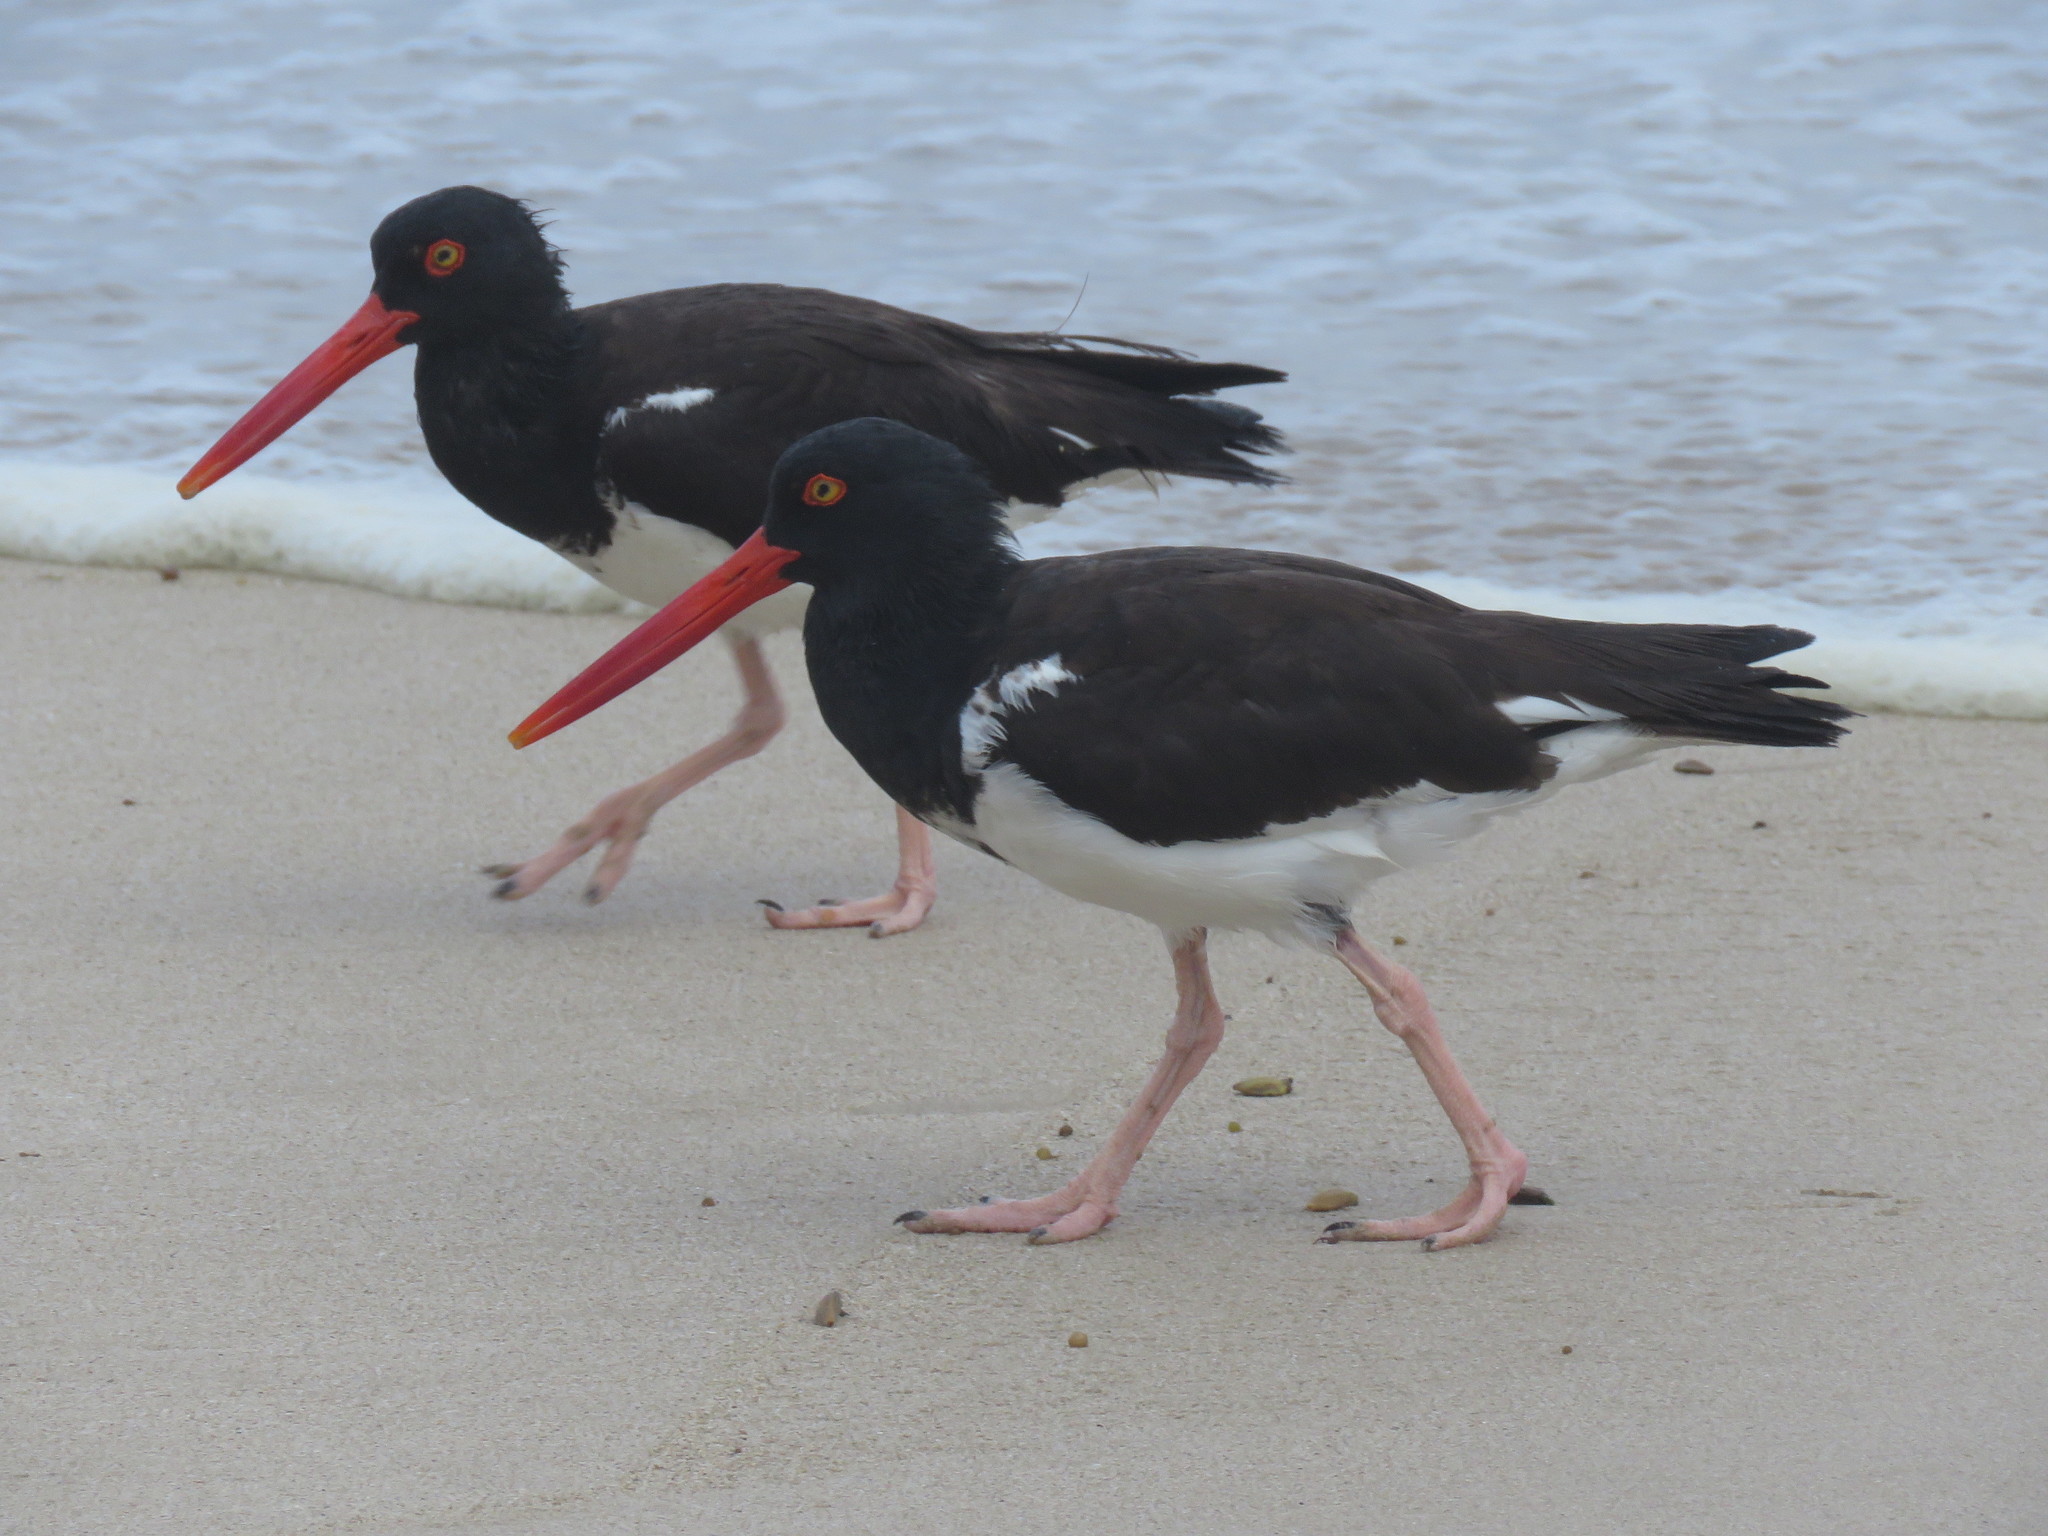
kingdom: Animalia
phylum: Chordata
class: Aves
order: Charadriiformes
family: Haematopodidae
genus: Haematopus
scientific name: Haematopus palliatus
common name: American oystercatcher
